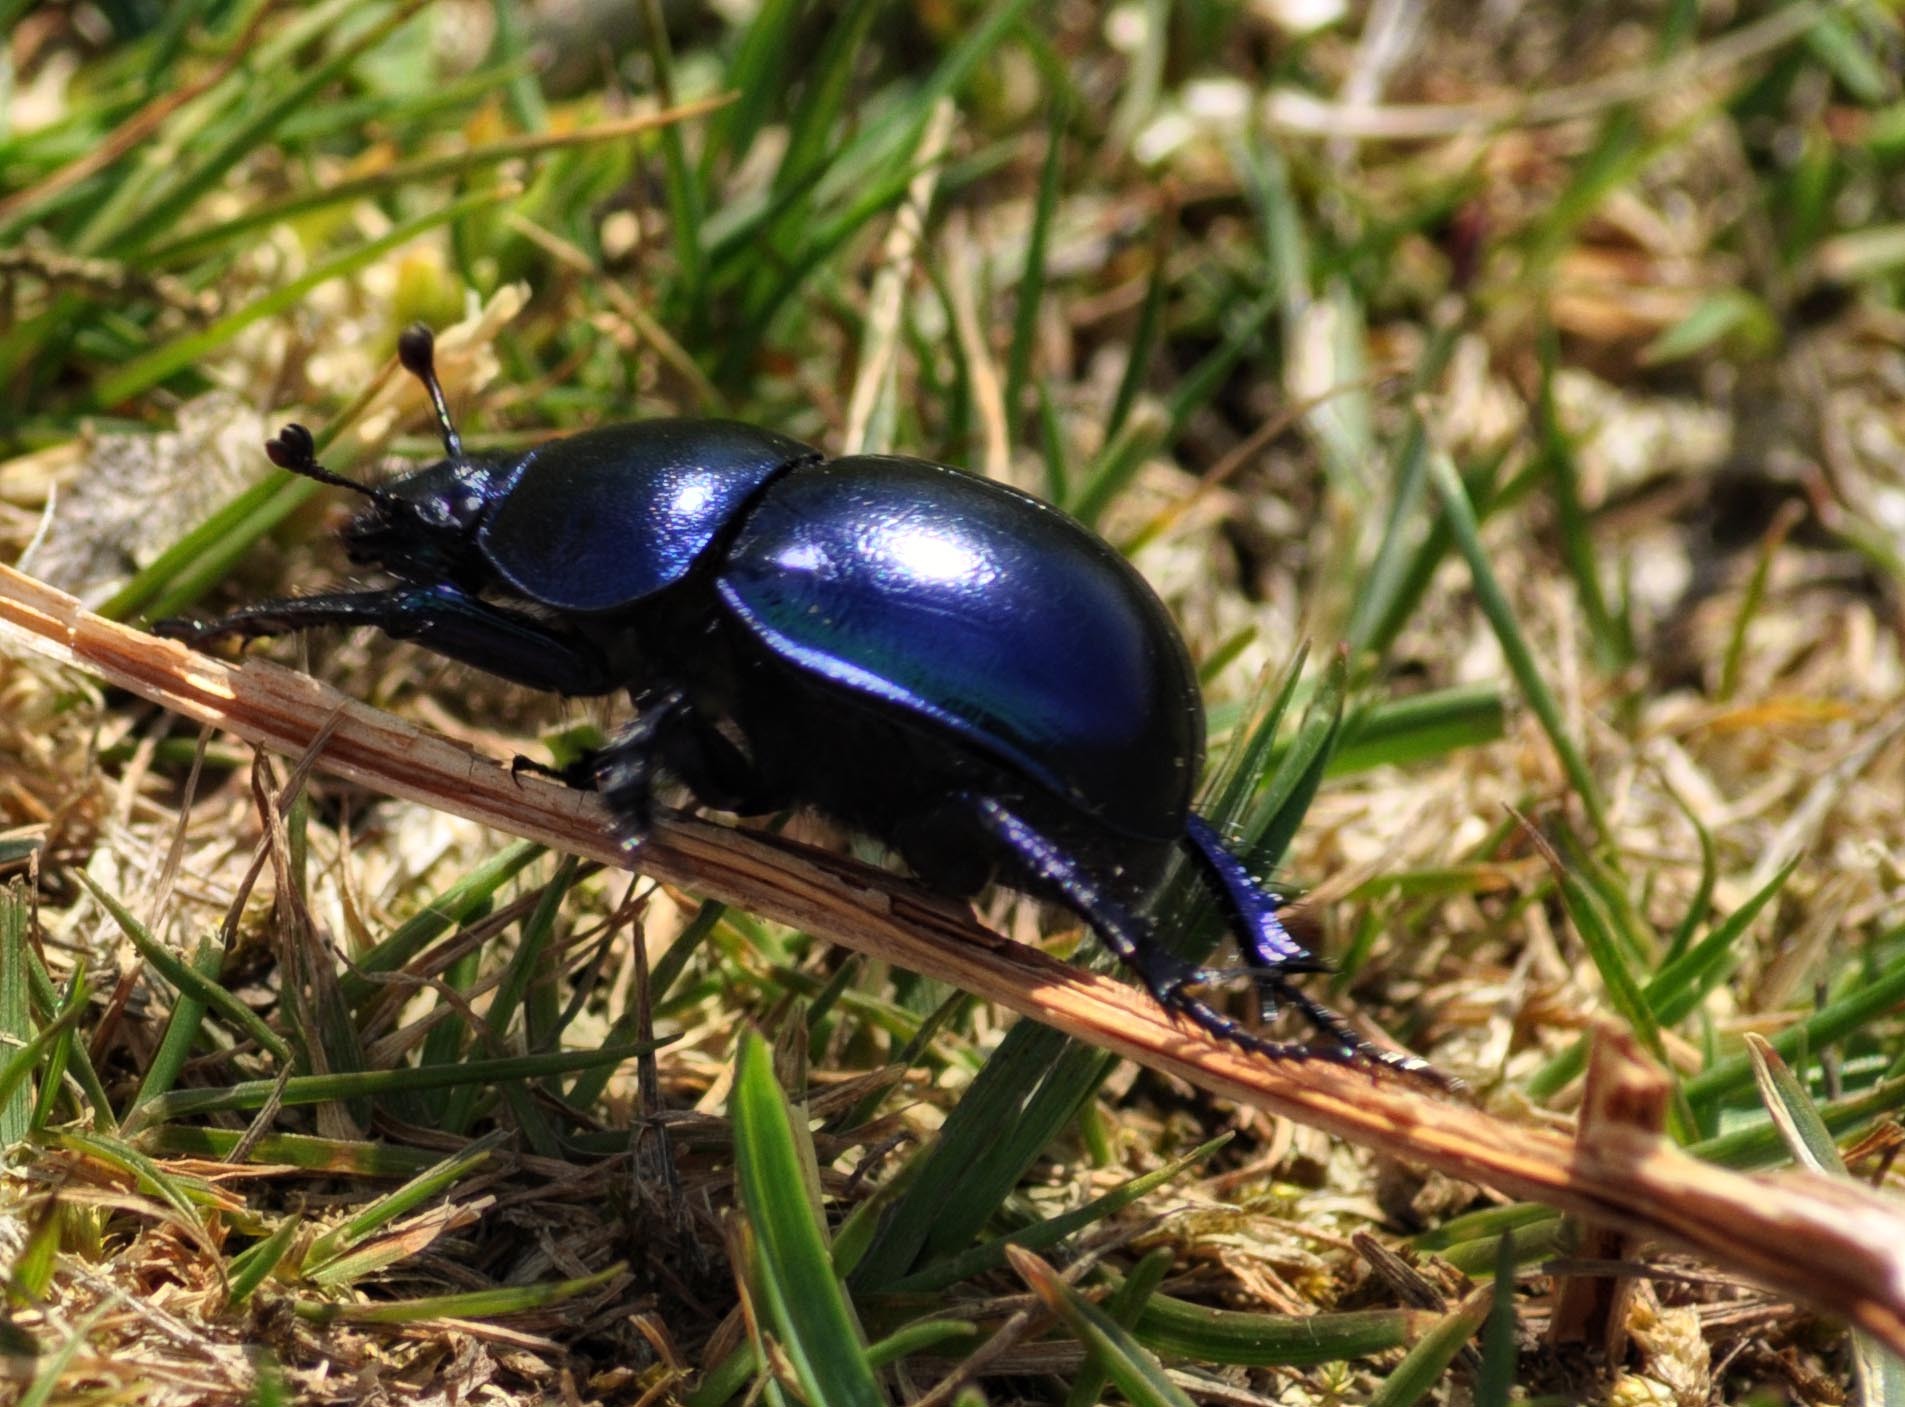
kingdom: Animalia
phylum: Arthropoda
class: Insecta
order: Coleoptera
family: Geotrupidae
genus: Trypocopris
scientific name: Trypocopris vernalis
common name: Spring dumbledor
